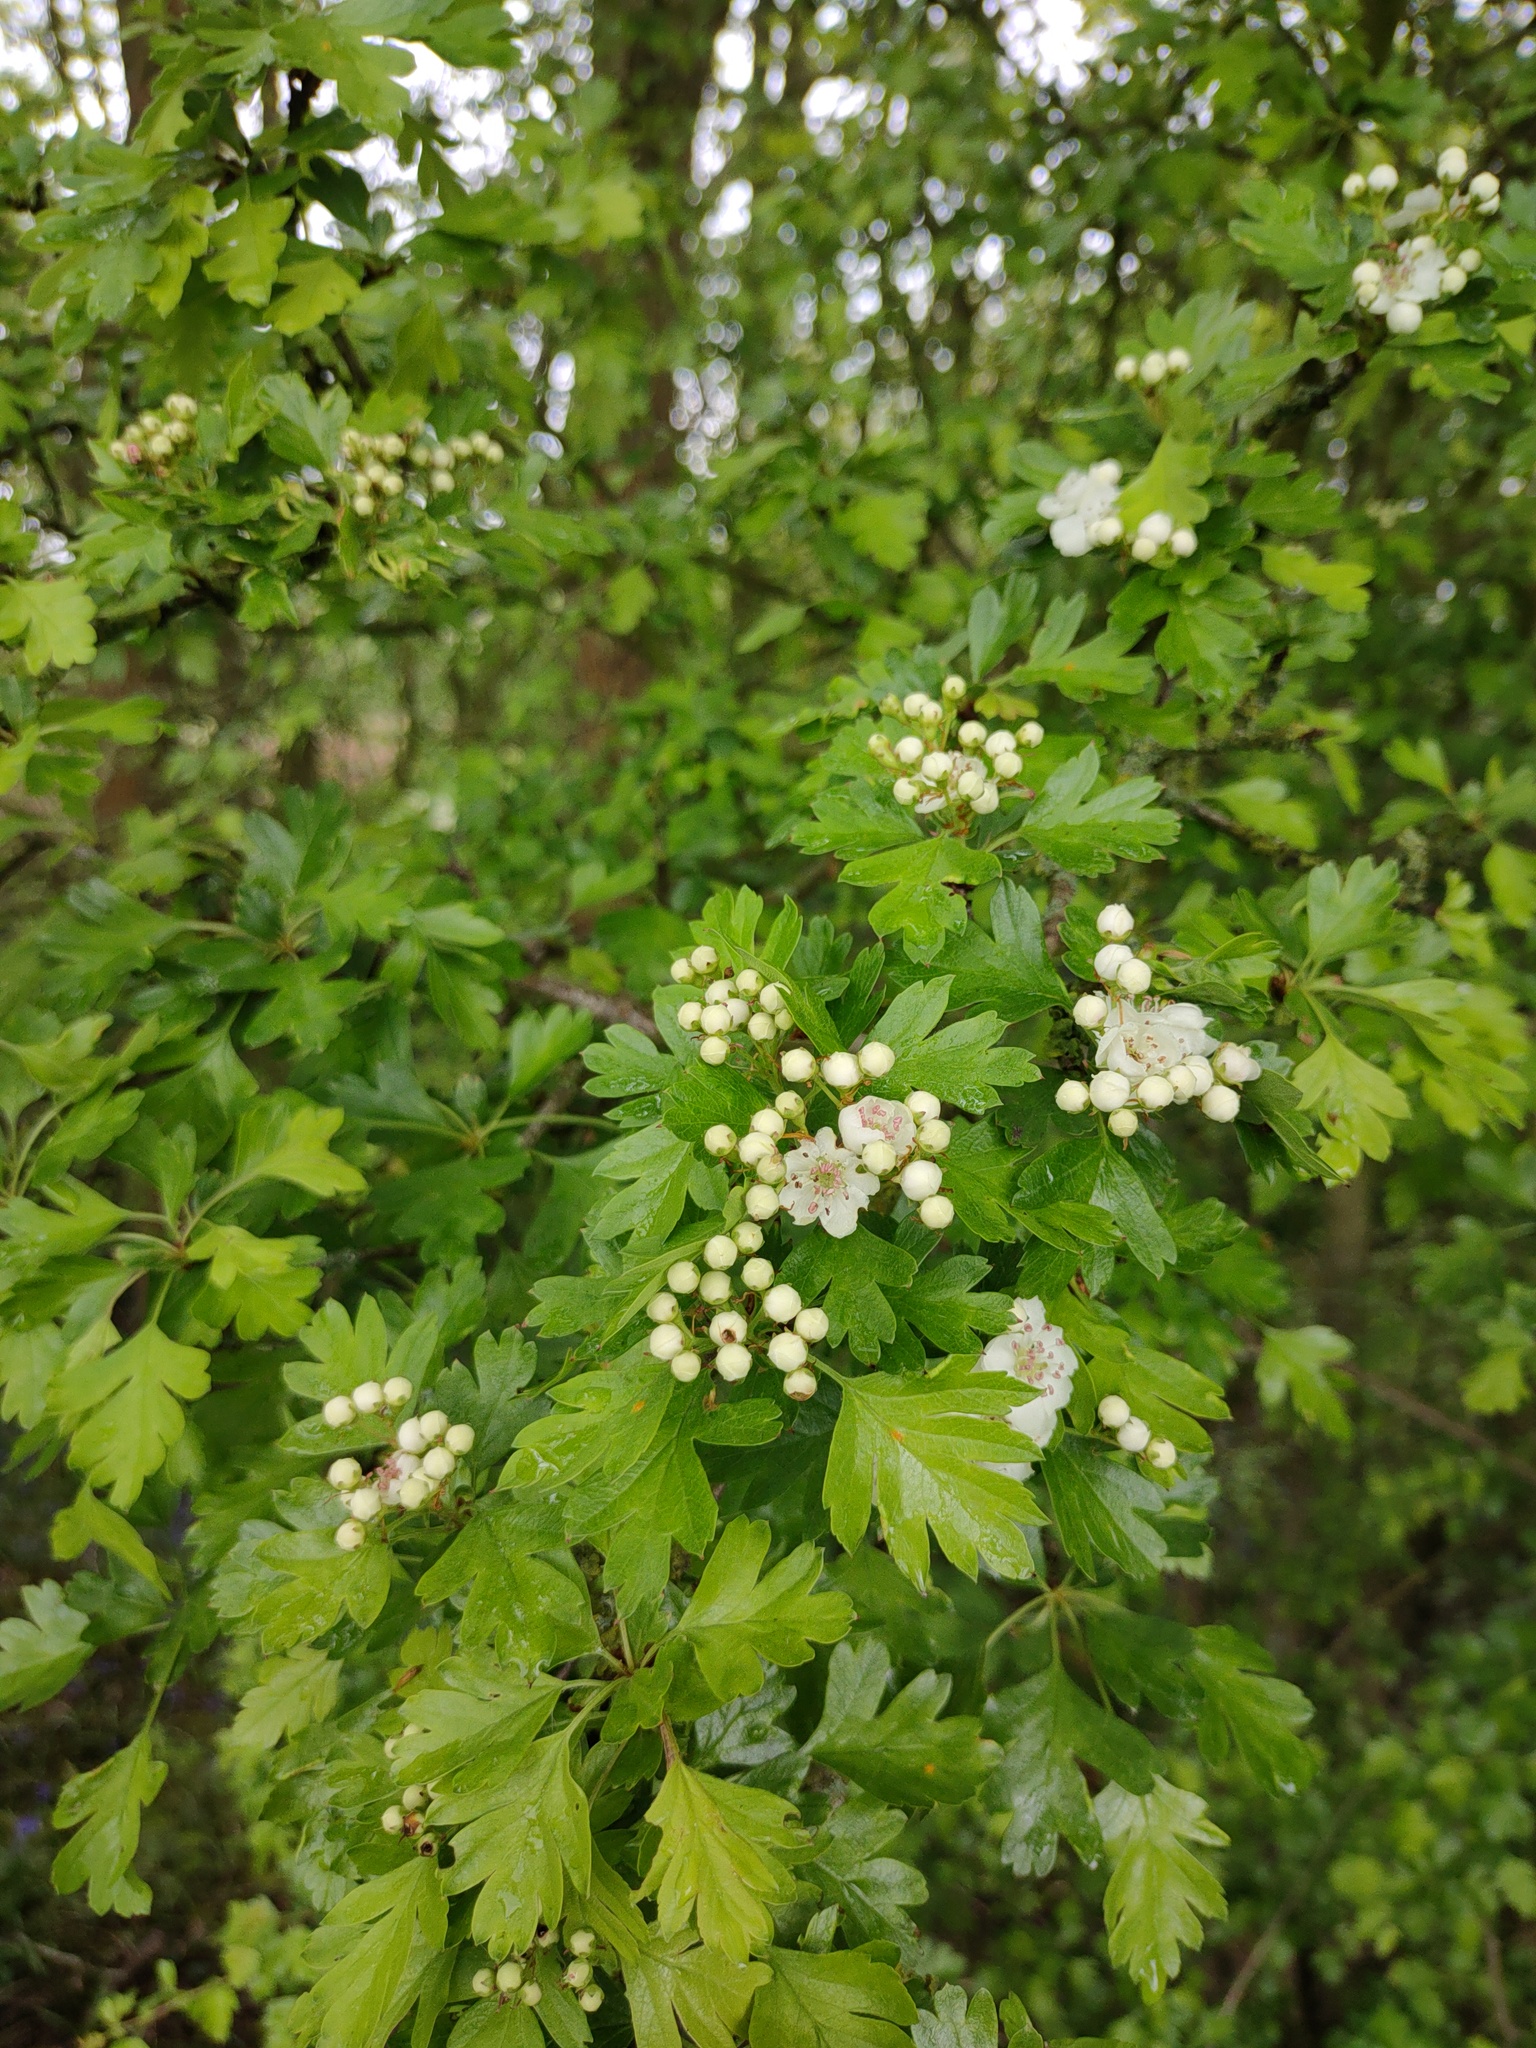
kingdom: Plantae
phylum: Tracheophyta
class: Magnoliopsida
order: Rosales
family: Rosaceae
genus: Crataegus
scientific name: Crataegus monogyna
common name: Hawthorn
